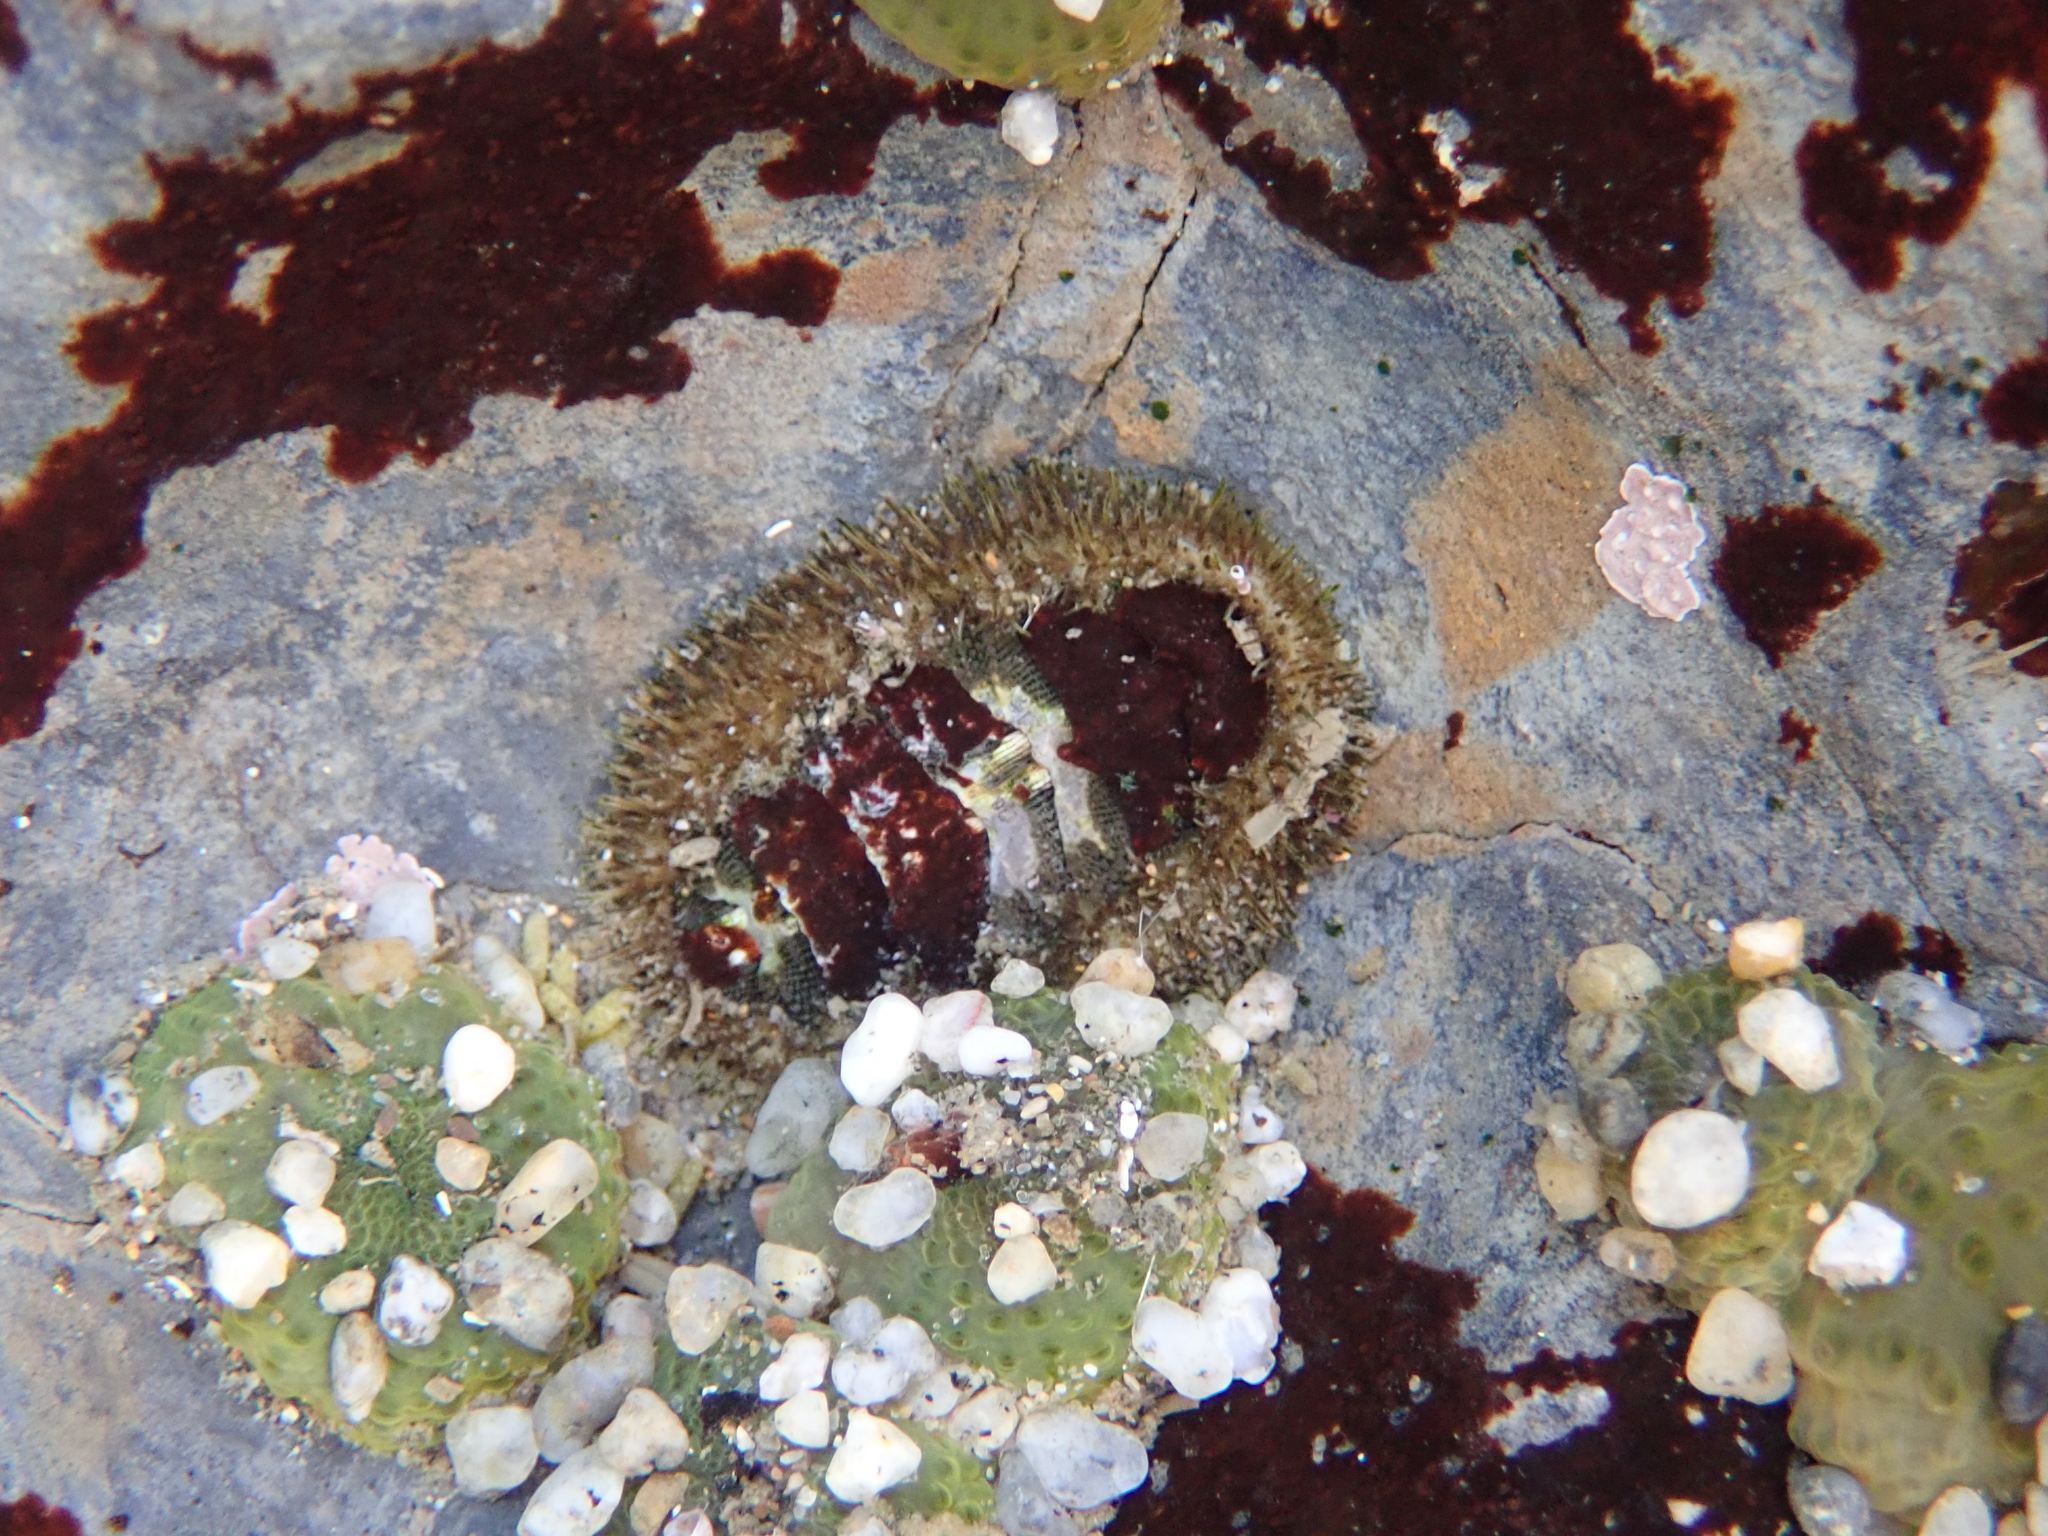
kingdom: Animalia
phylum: Mollusca
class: Polyplacophora
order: Chitonida
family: Mopaliidae
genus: Mopalia
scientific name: Mopalia muscosa
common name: Mossy chiton
